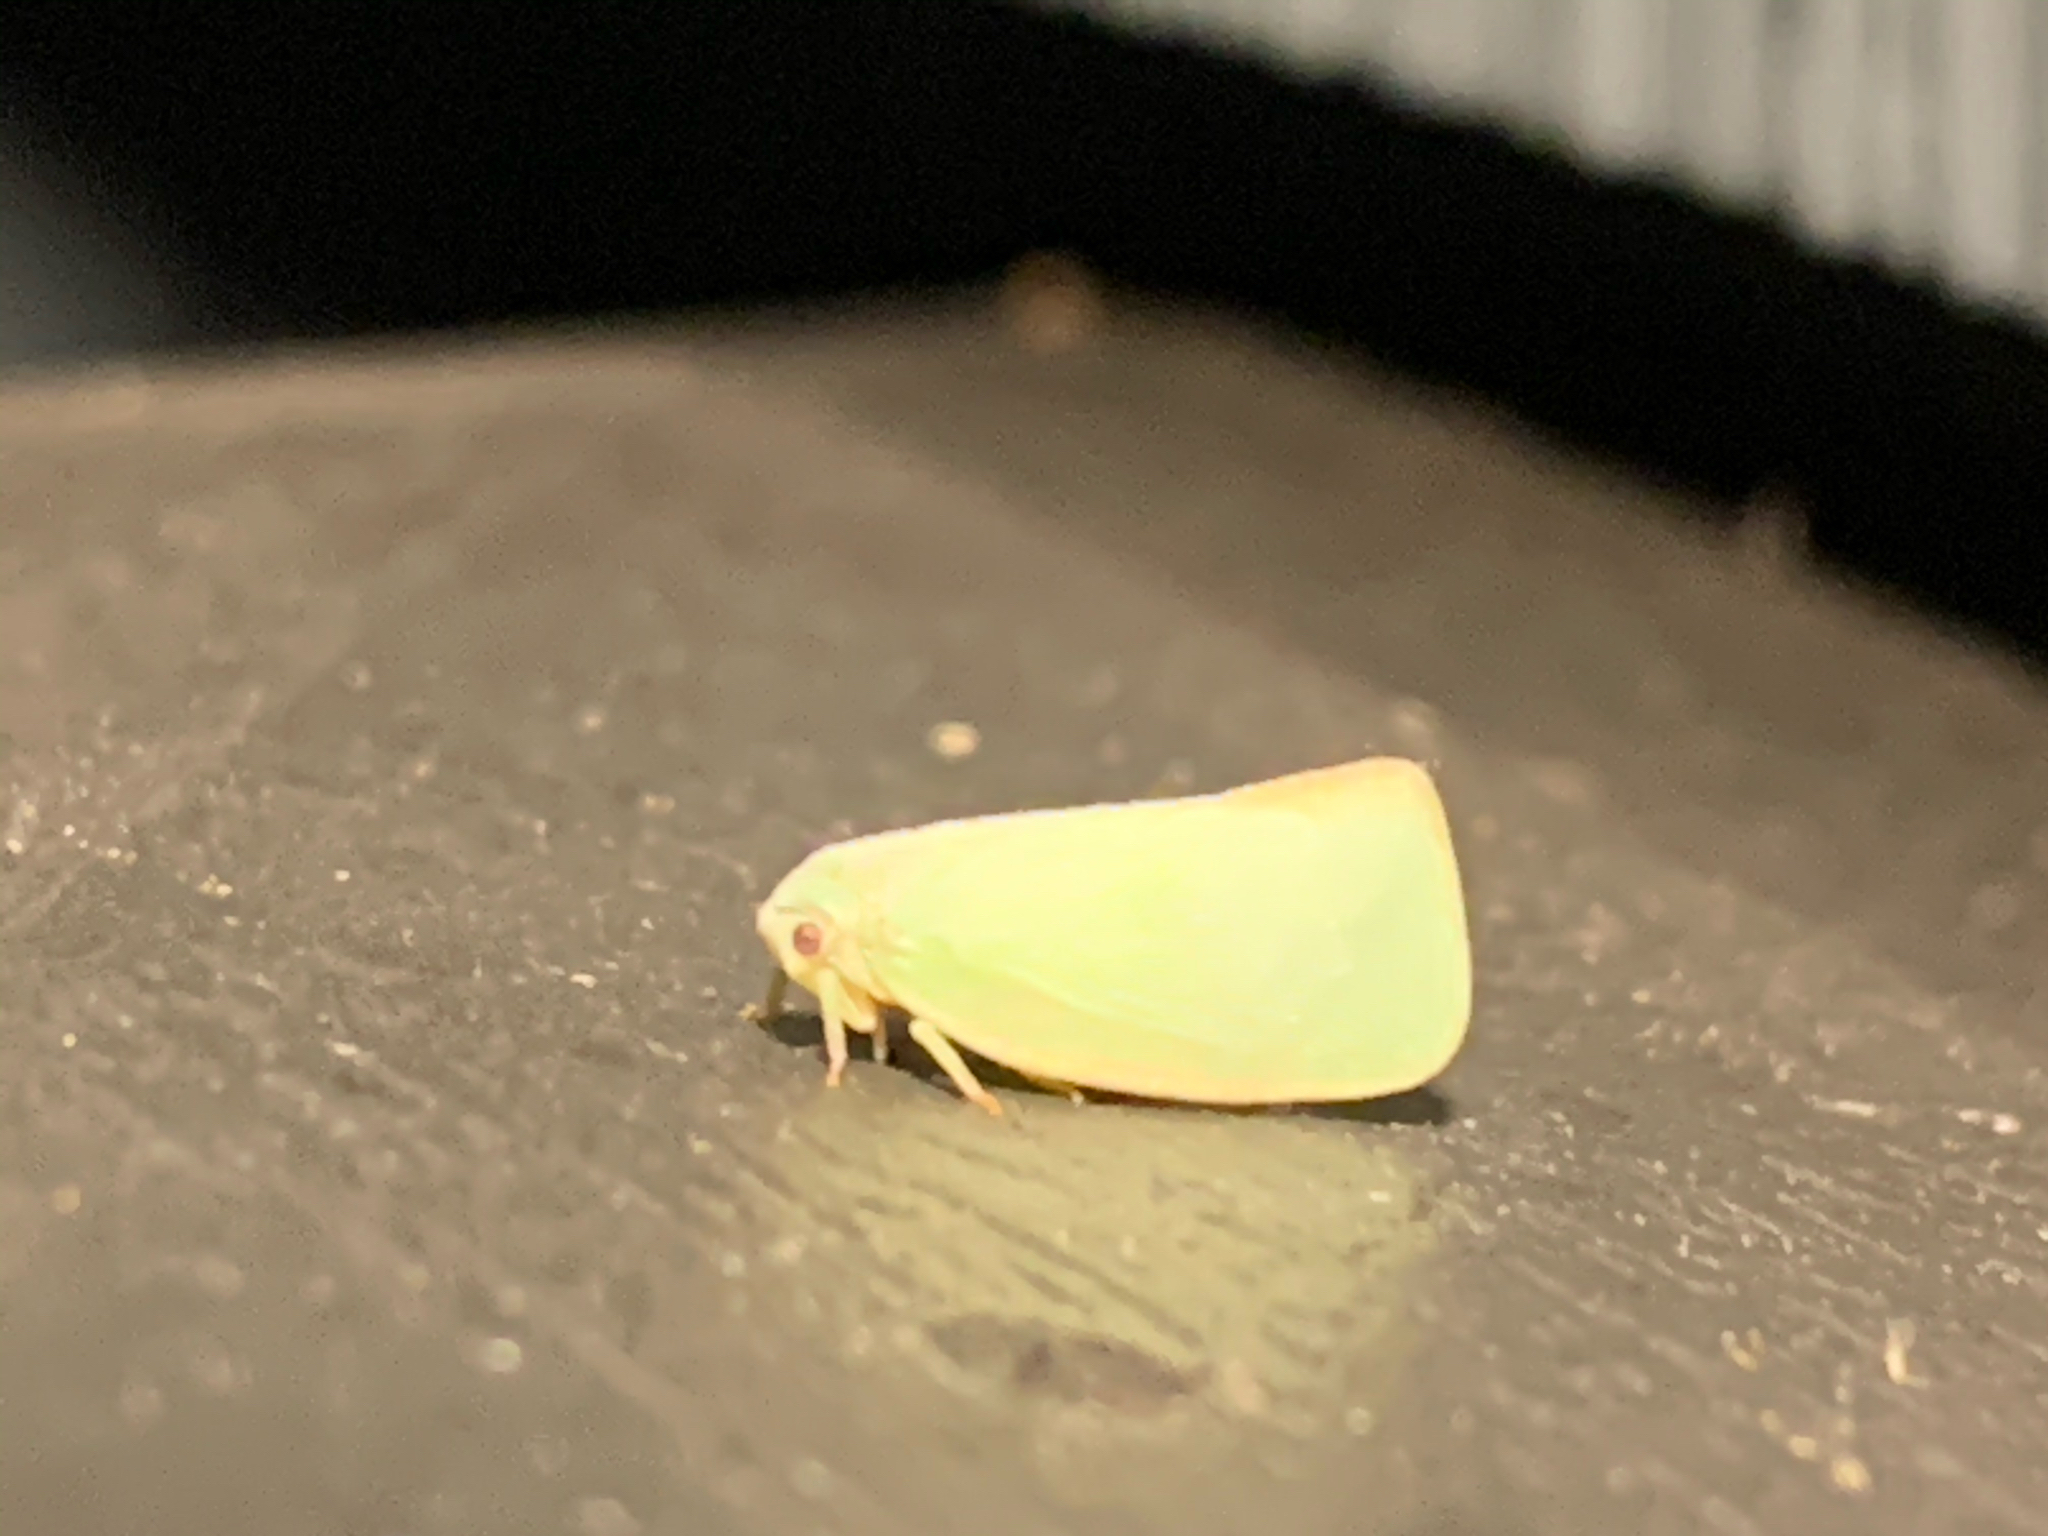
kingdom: Animalia
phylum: Arthropoda
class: Insecta
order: Hemiptera
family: Flatidae
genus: Flatormenis
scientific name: Flatormenis proxima
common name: Northern flatid planthopper
